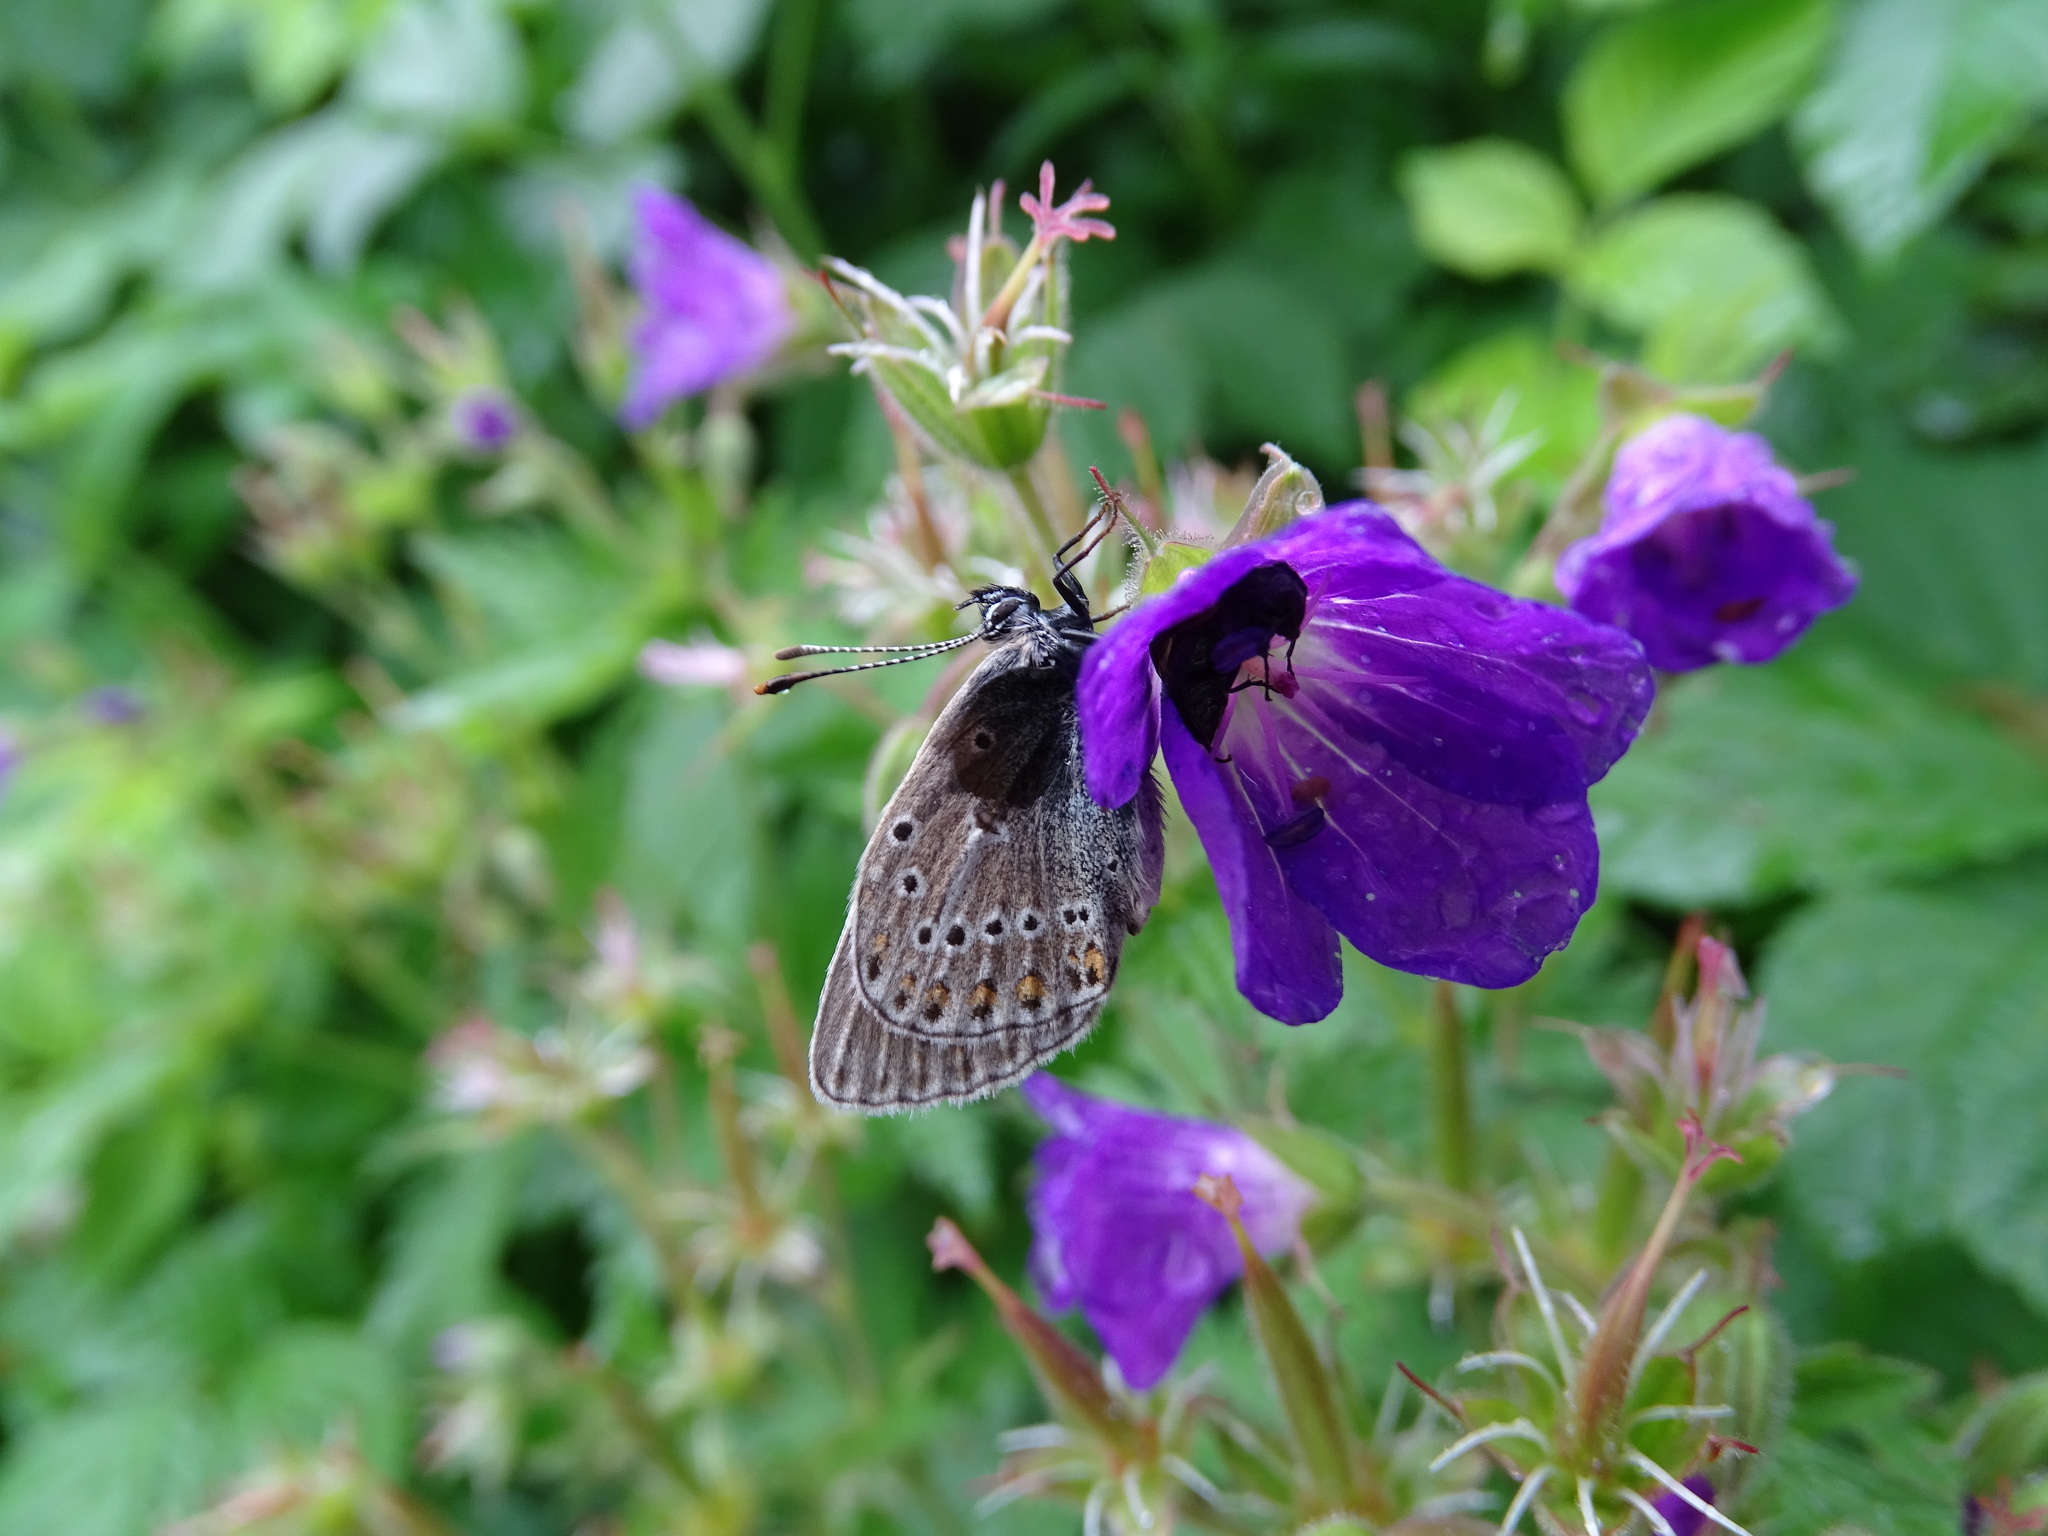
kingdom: Animalia
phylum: Arthropoda
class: Insecta
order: Lepidoptera
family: Lycaenidae
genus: Eumedonia
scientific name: Eumedonia eumedon
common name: Geranium argus
